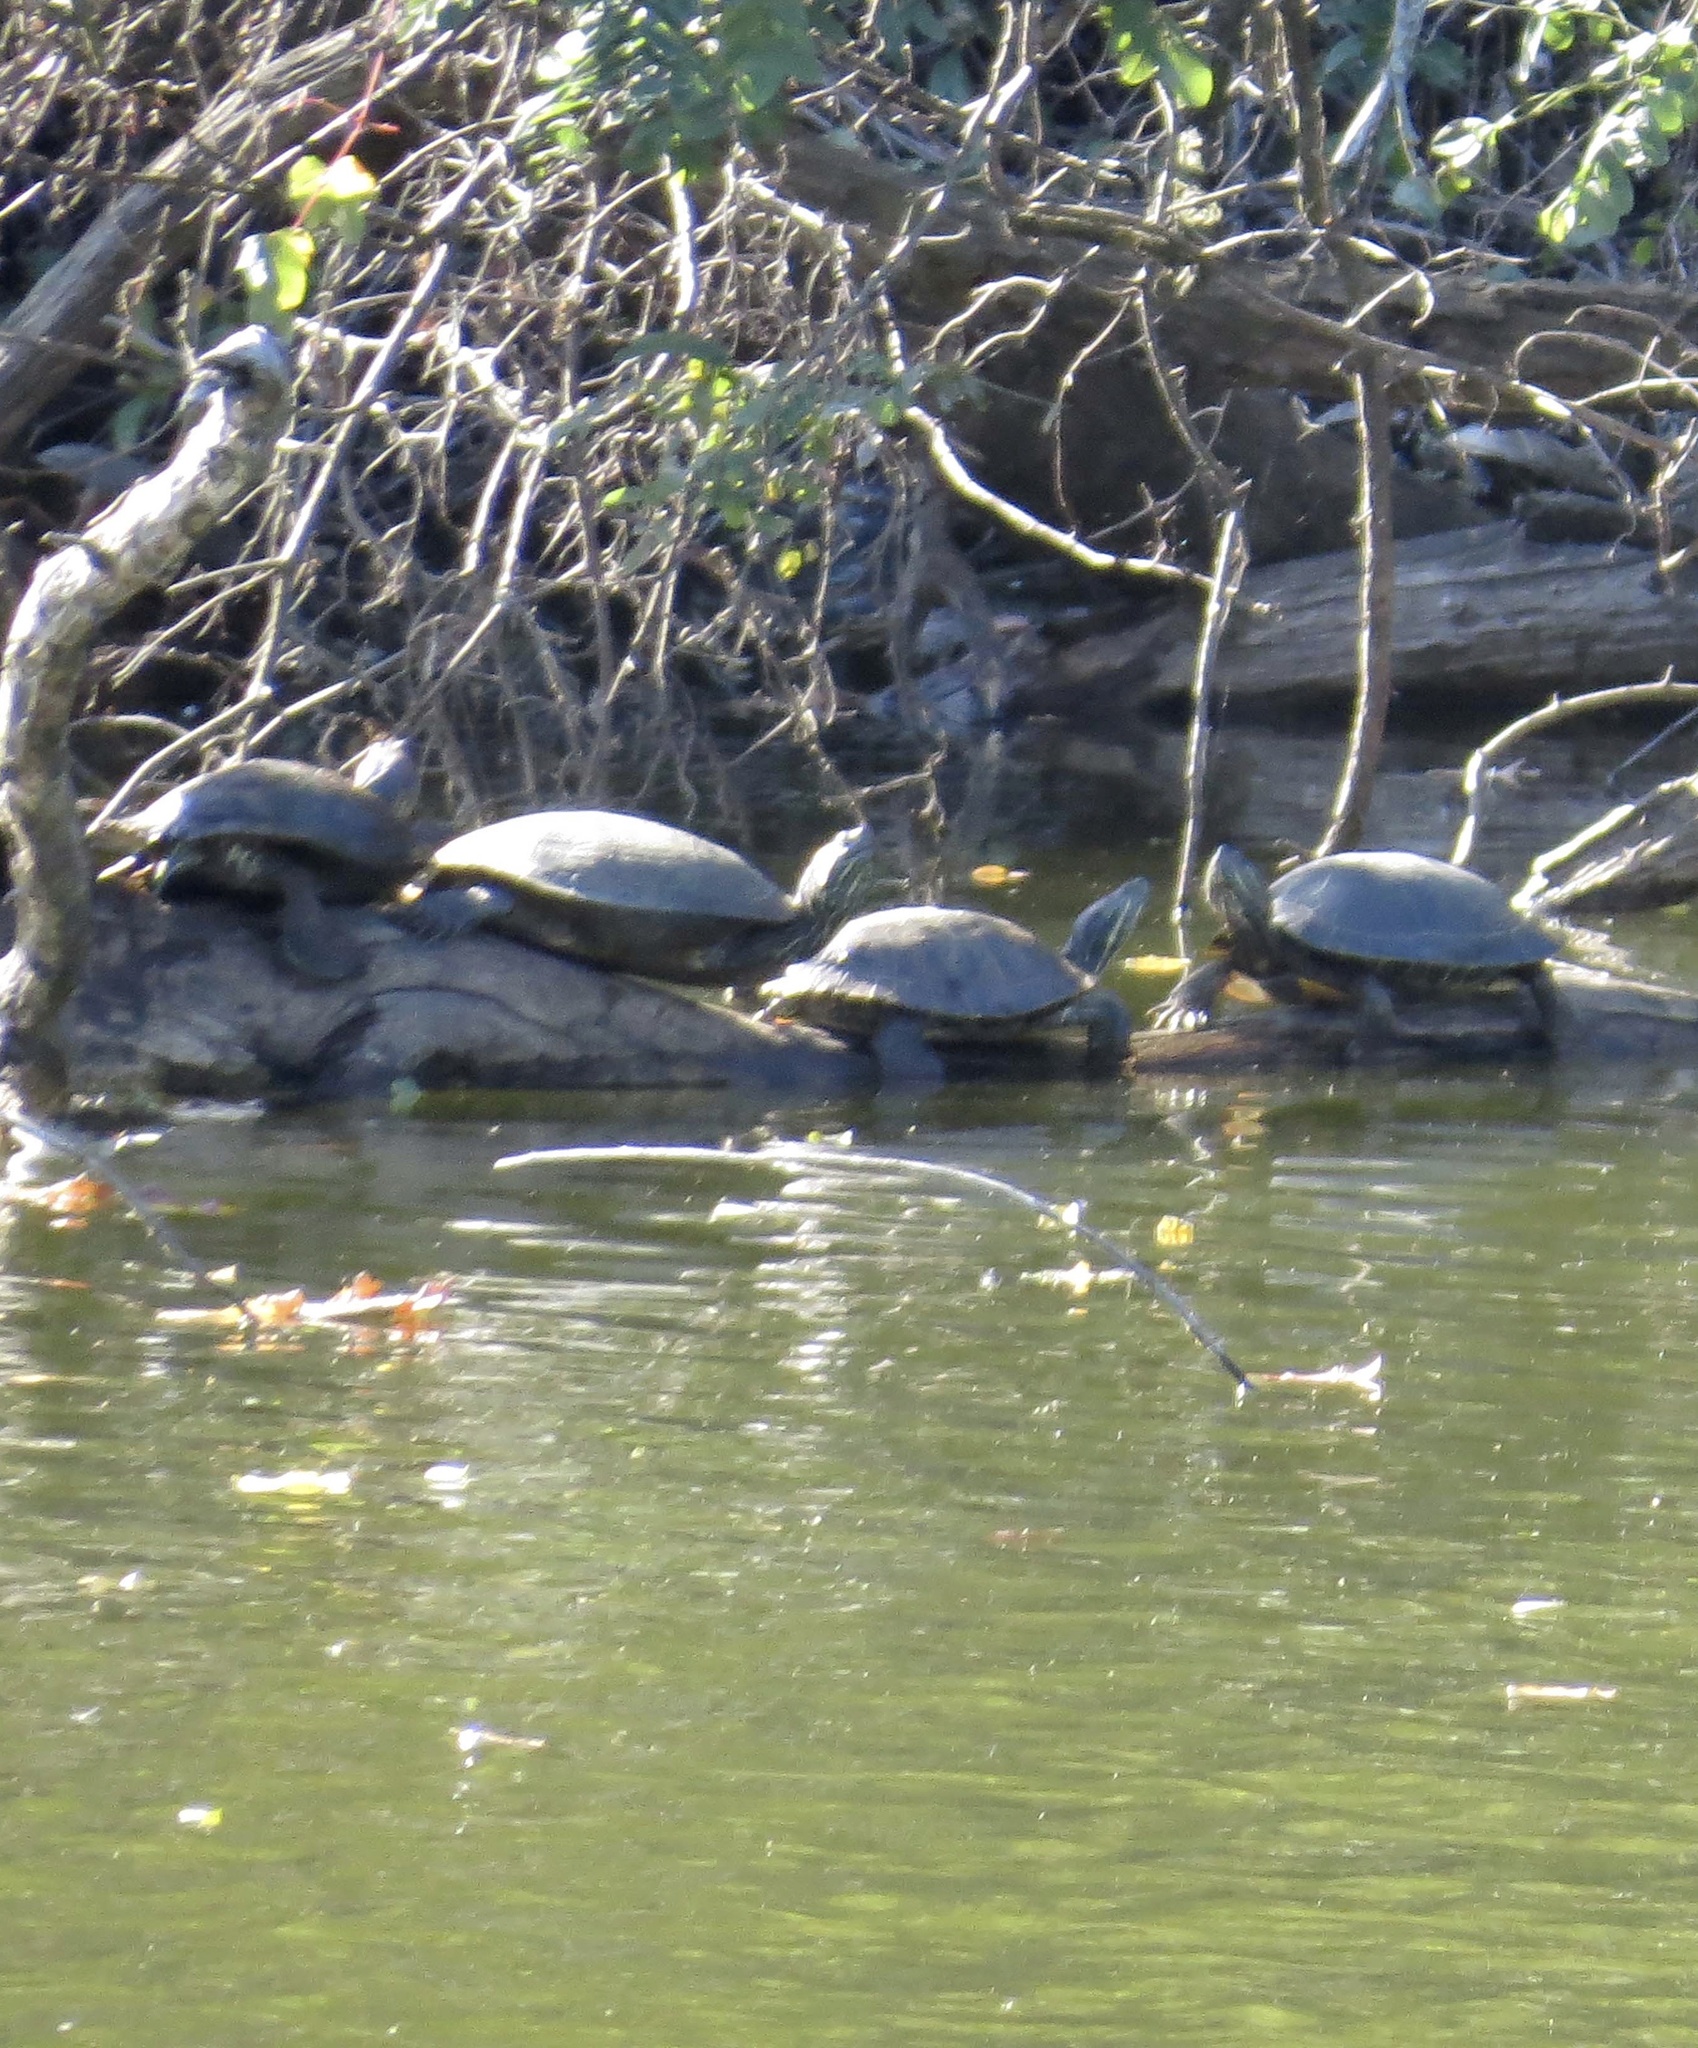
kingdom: Animalia
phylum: Chordata
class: Testudines
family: Emydidae
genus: Trachemys
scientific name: Trachemys scripta
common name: Slider
